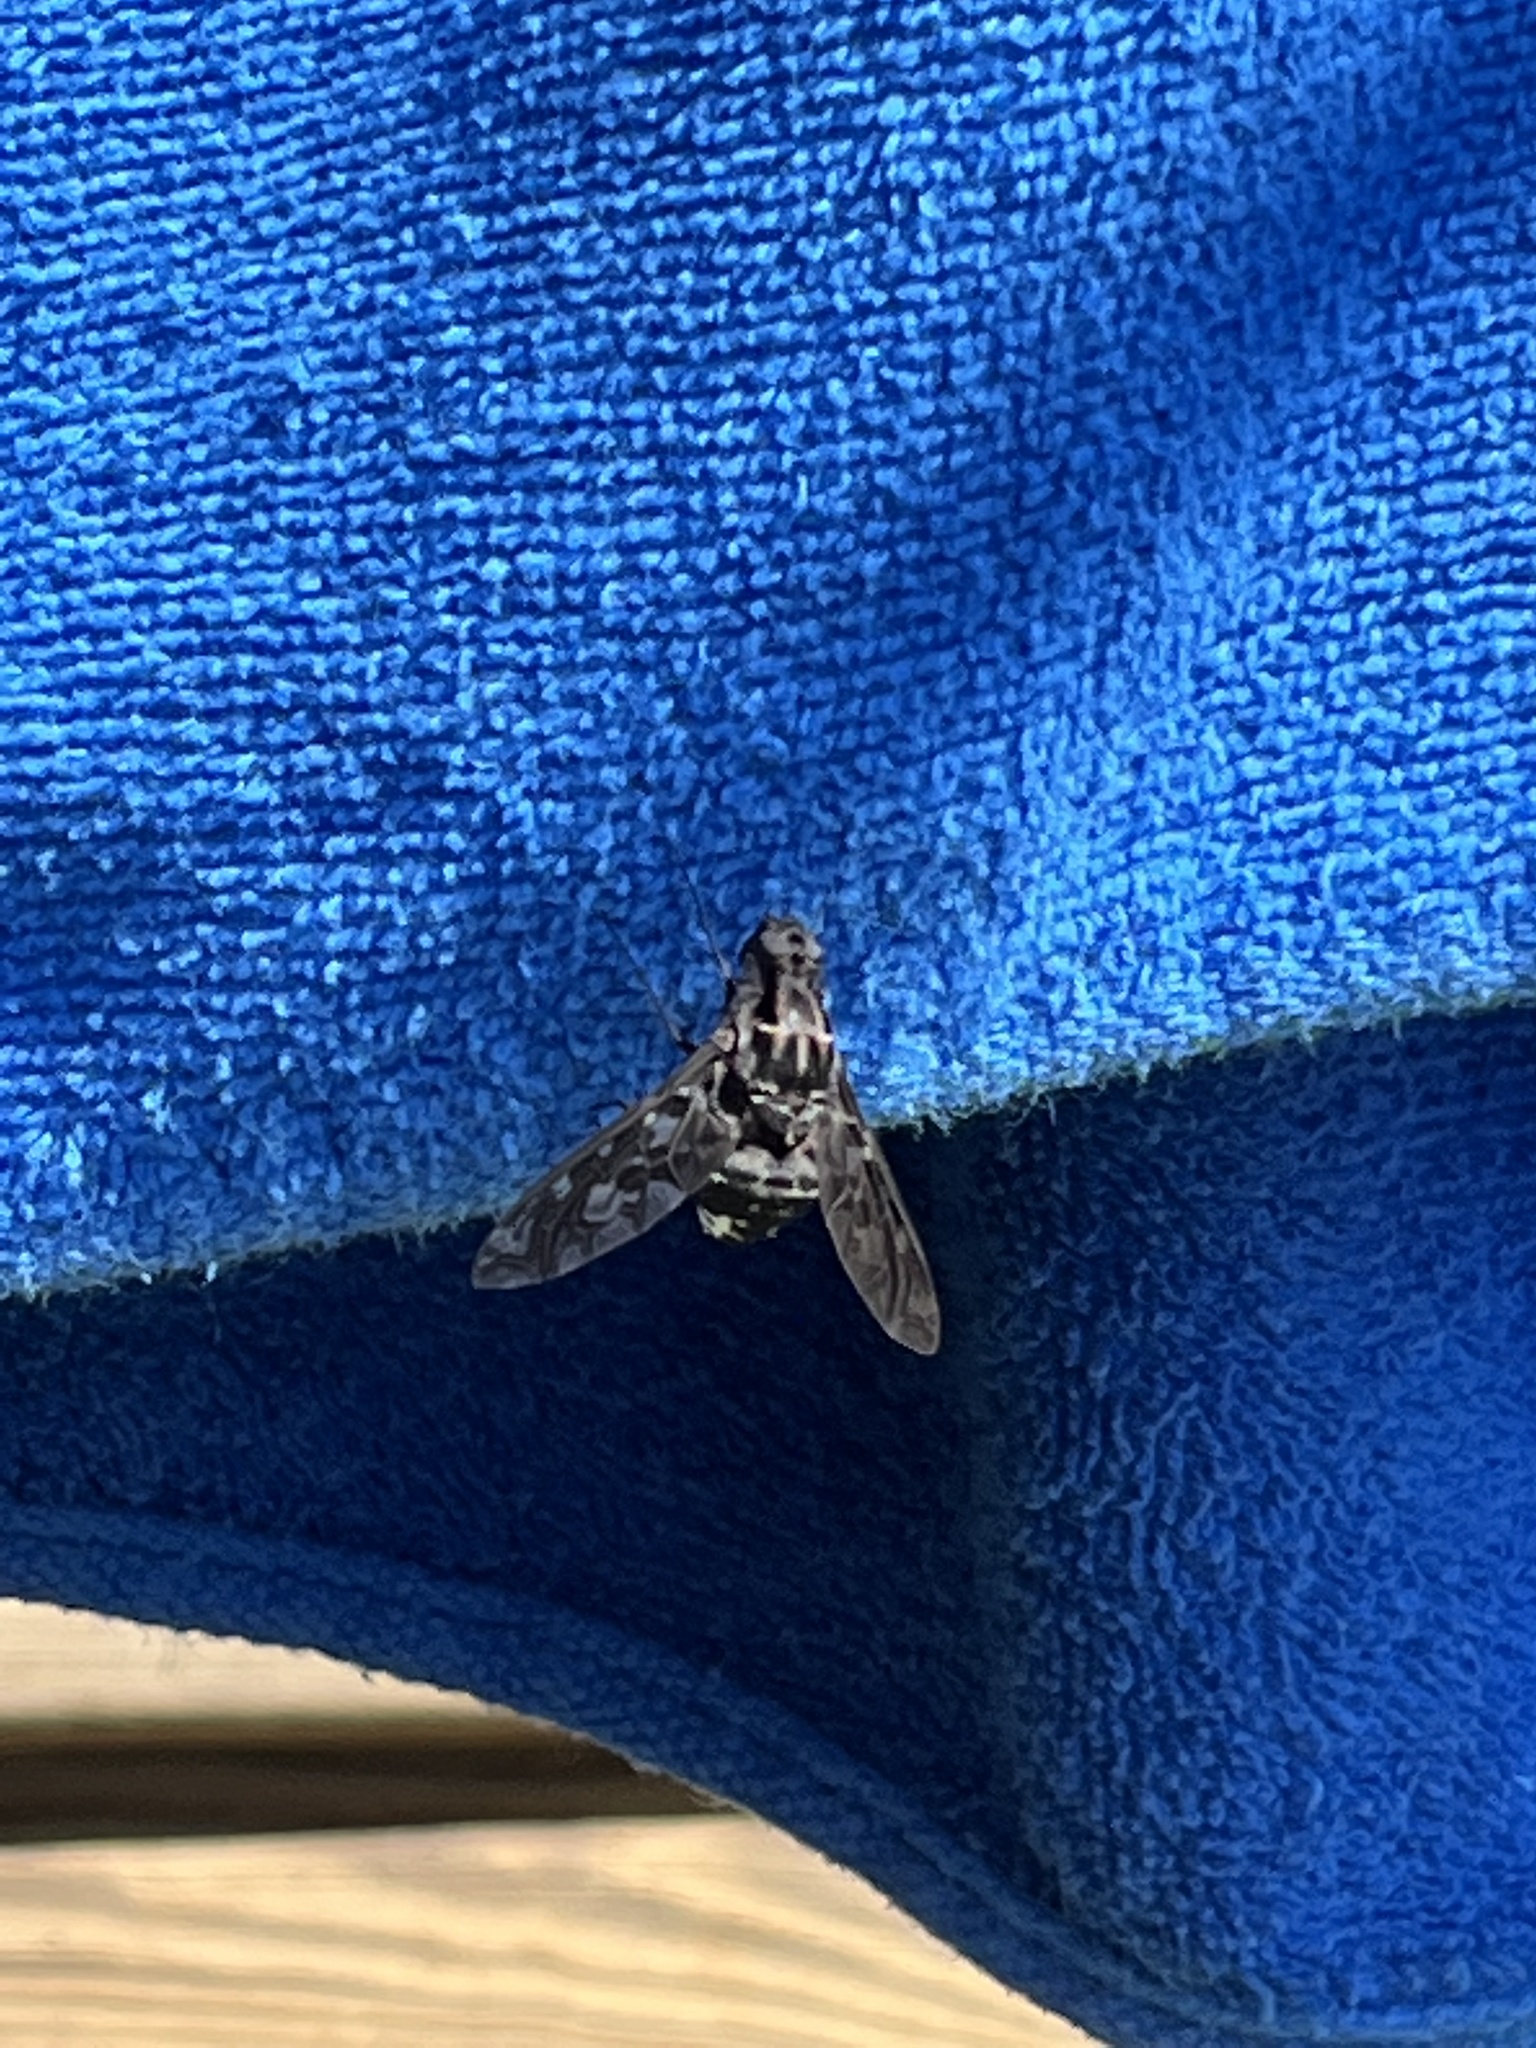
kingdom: Animalia
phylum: Arthropoda
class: Insecta
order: Diptera
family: Bombyliidae
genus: Xenox
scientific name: Xenox tigrinus
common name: Tiger bee fly
